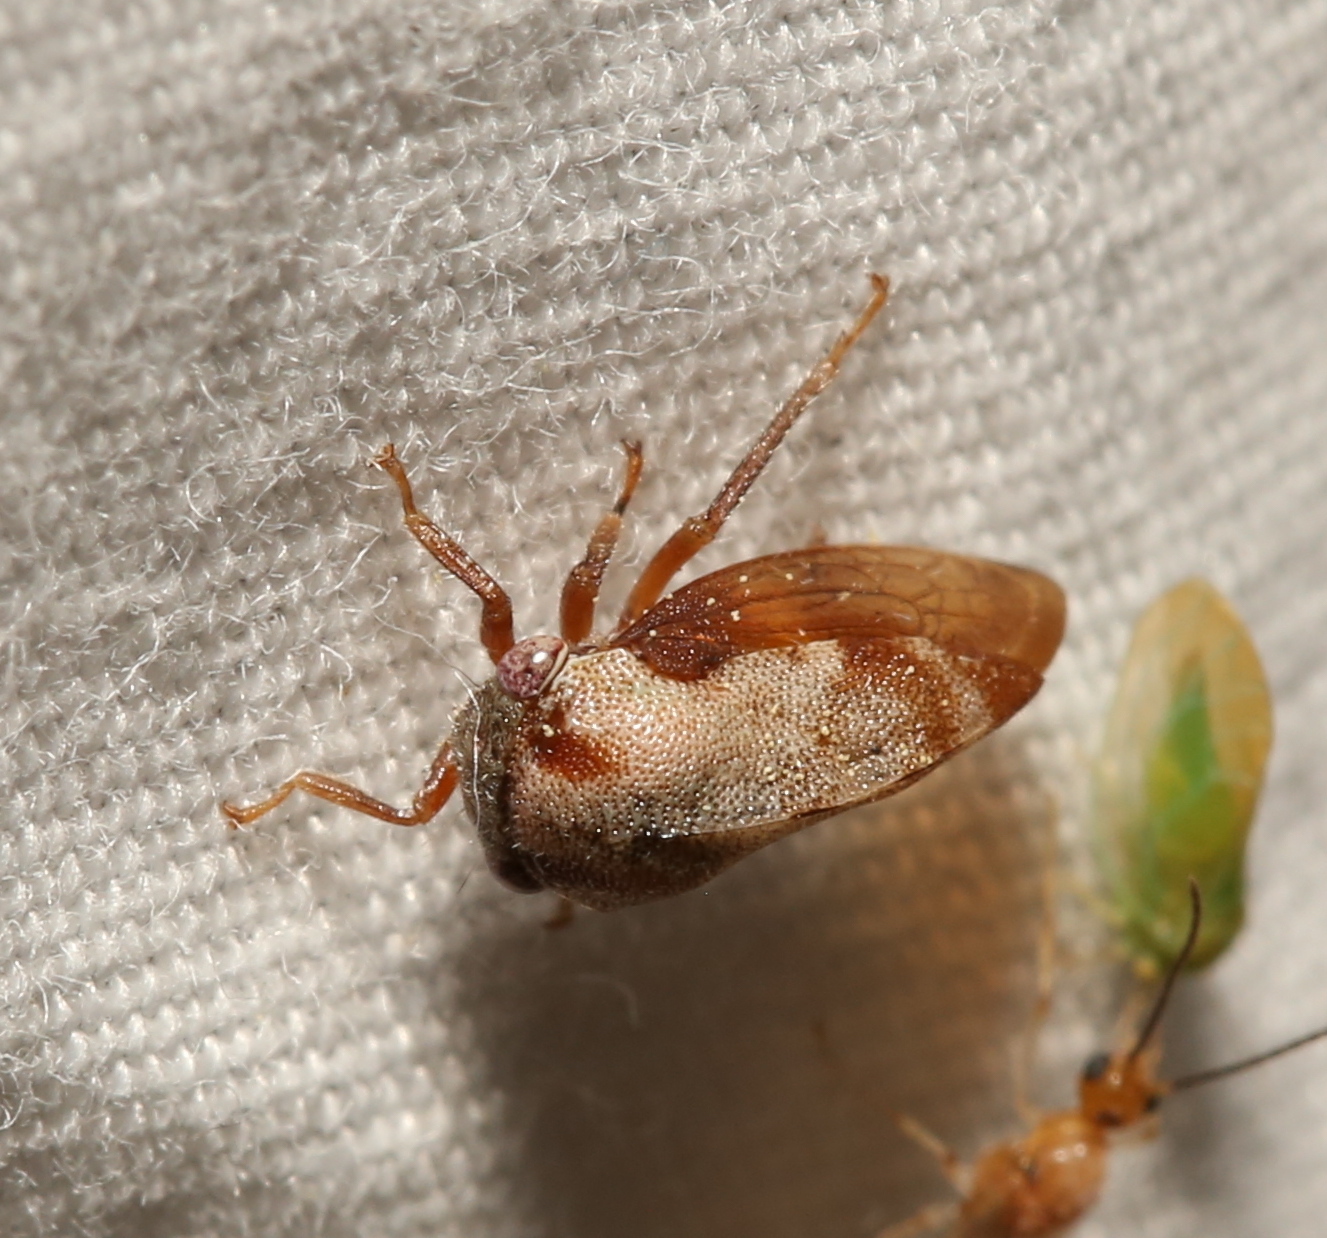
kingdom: Animalia
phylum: Arthropoda
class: Insecta
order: Hemiptera
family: Membracidae
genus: Cyrtolobus
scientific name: Cyrtolobus fuscipennis
